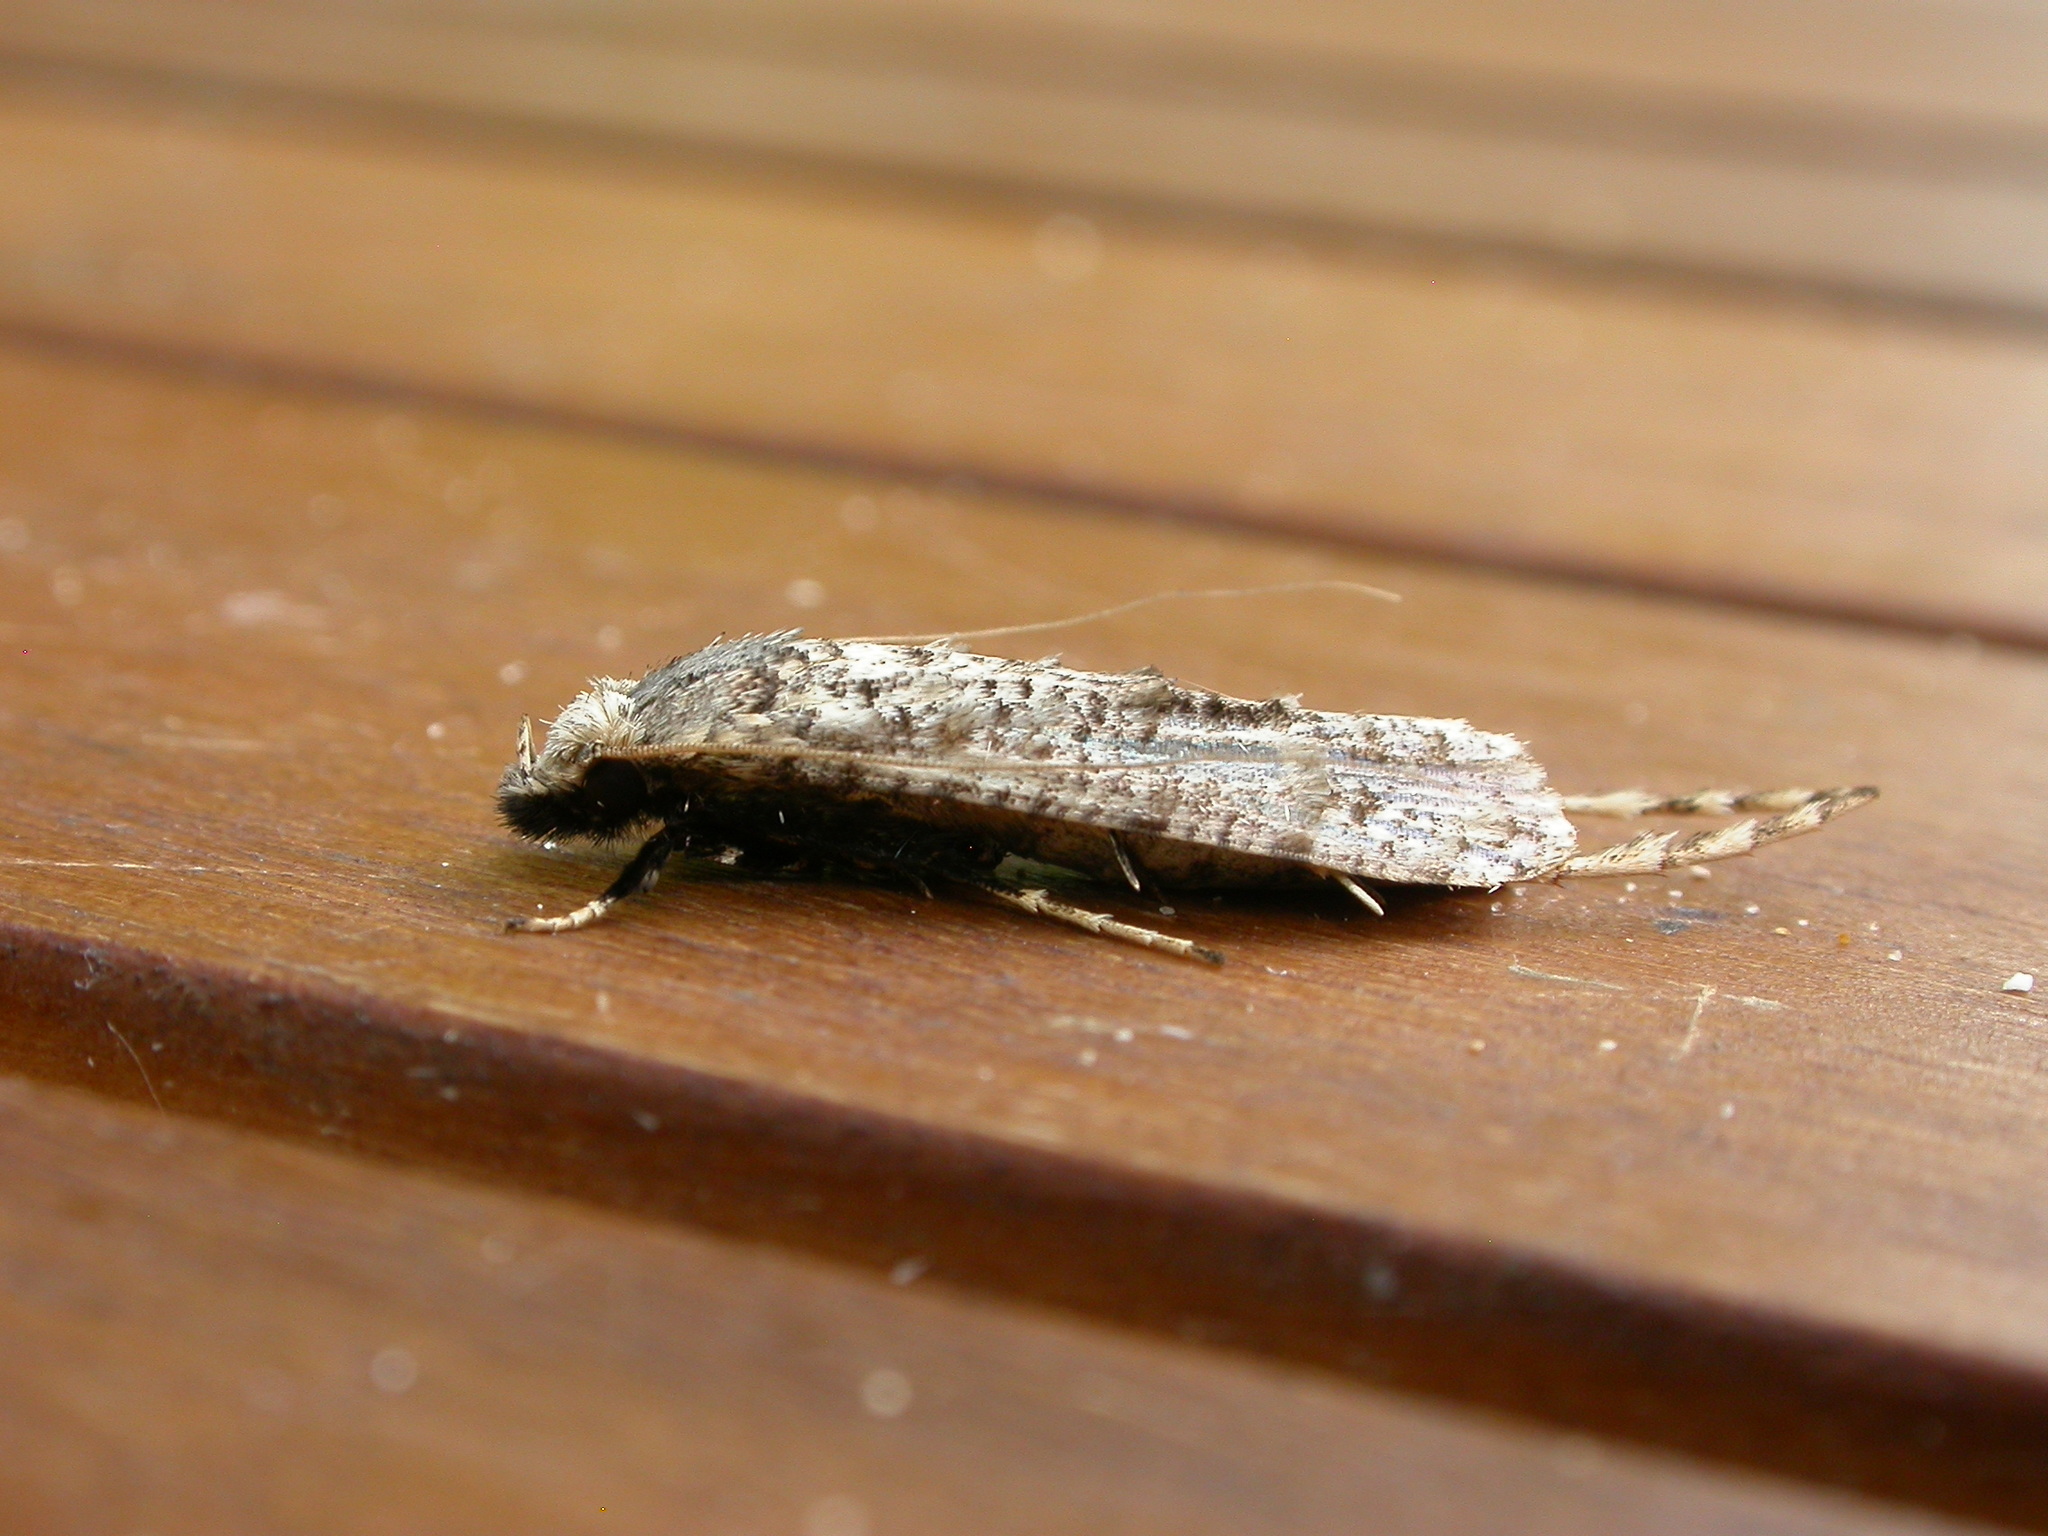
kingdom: Animalia
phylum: Arthropoda
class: Insecta
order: Lepidoptera
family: Tineidae
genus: Gerontha
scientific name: Gerontha acrosthenia
